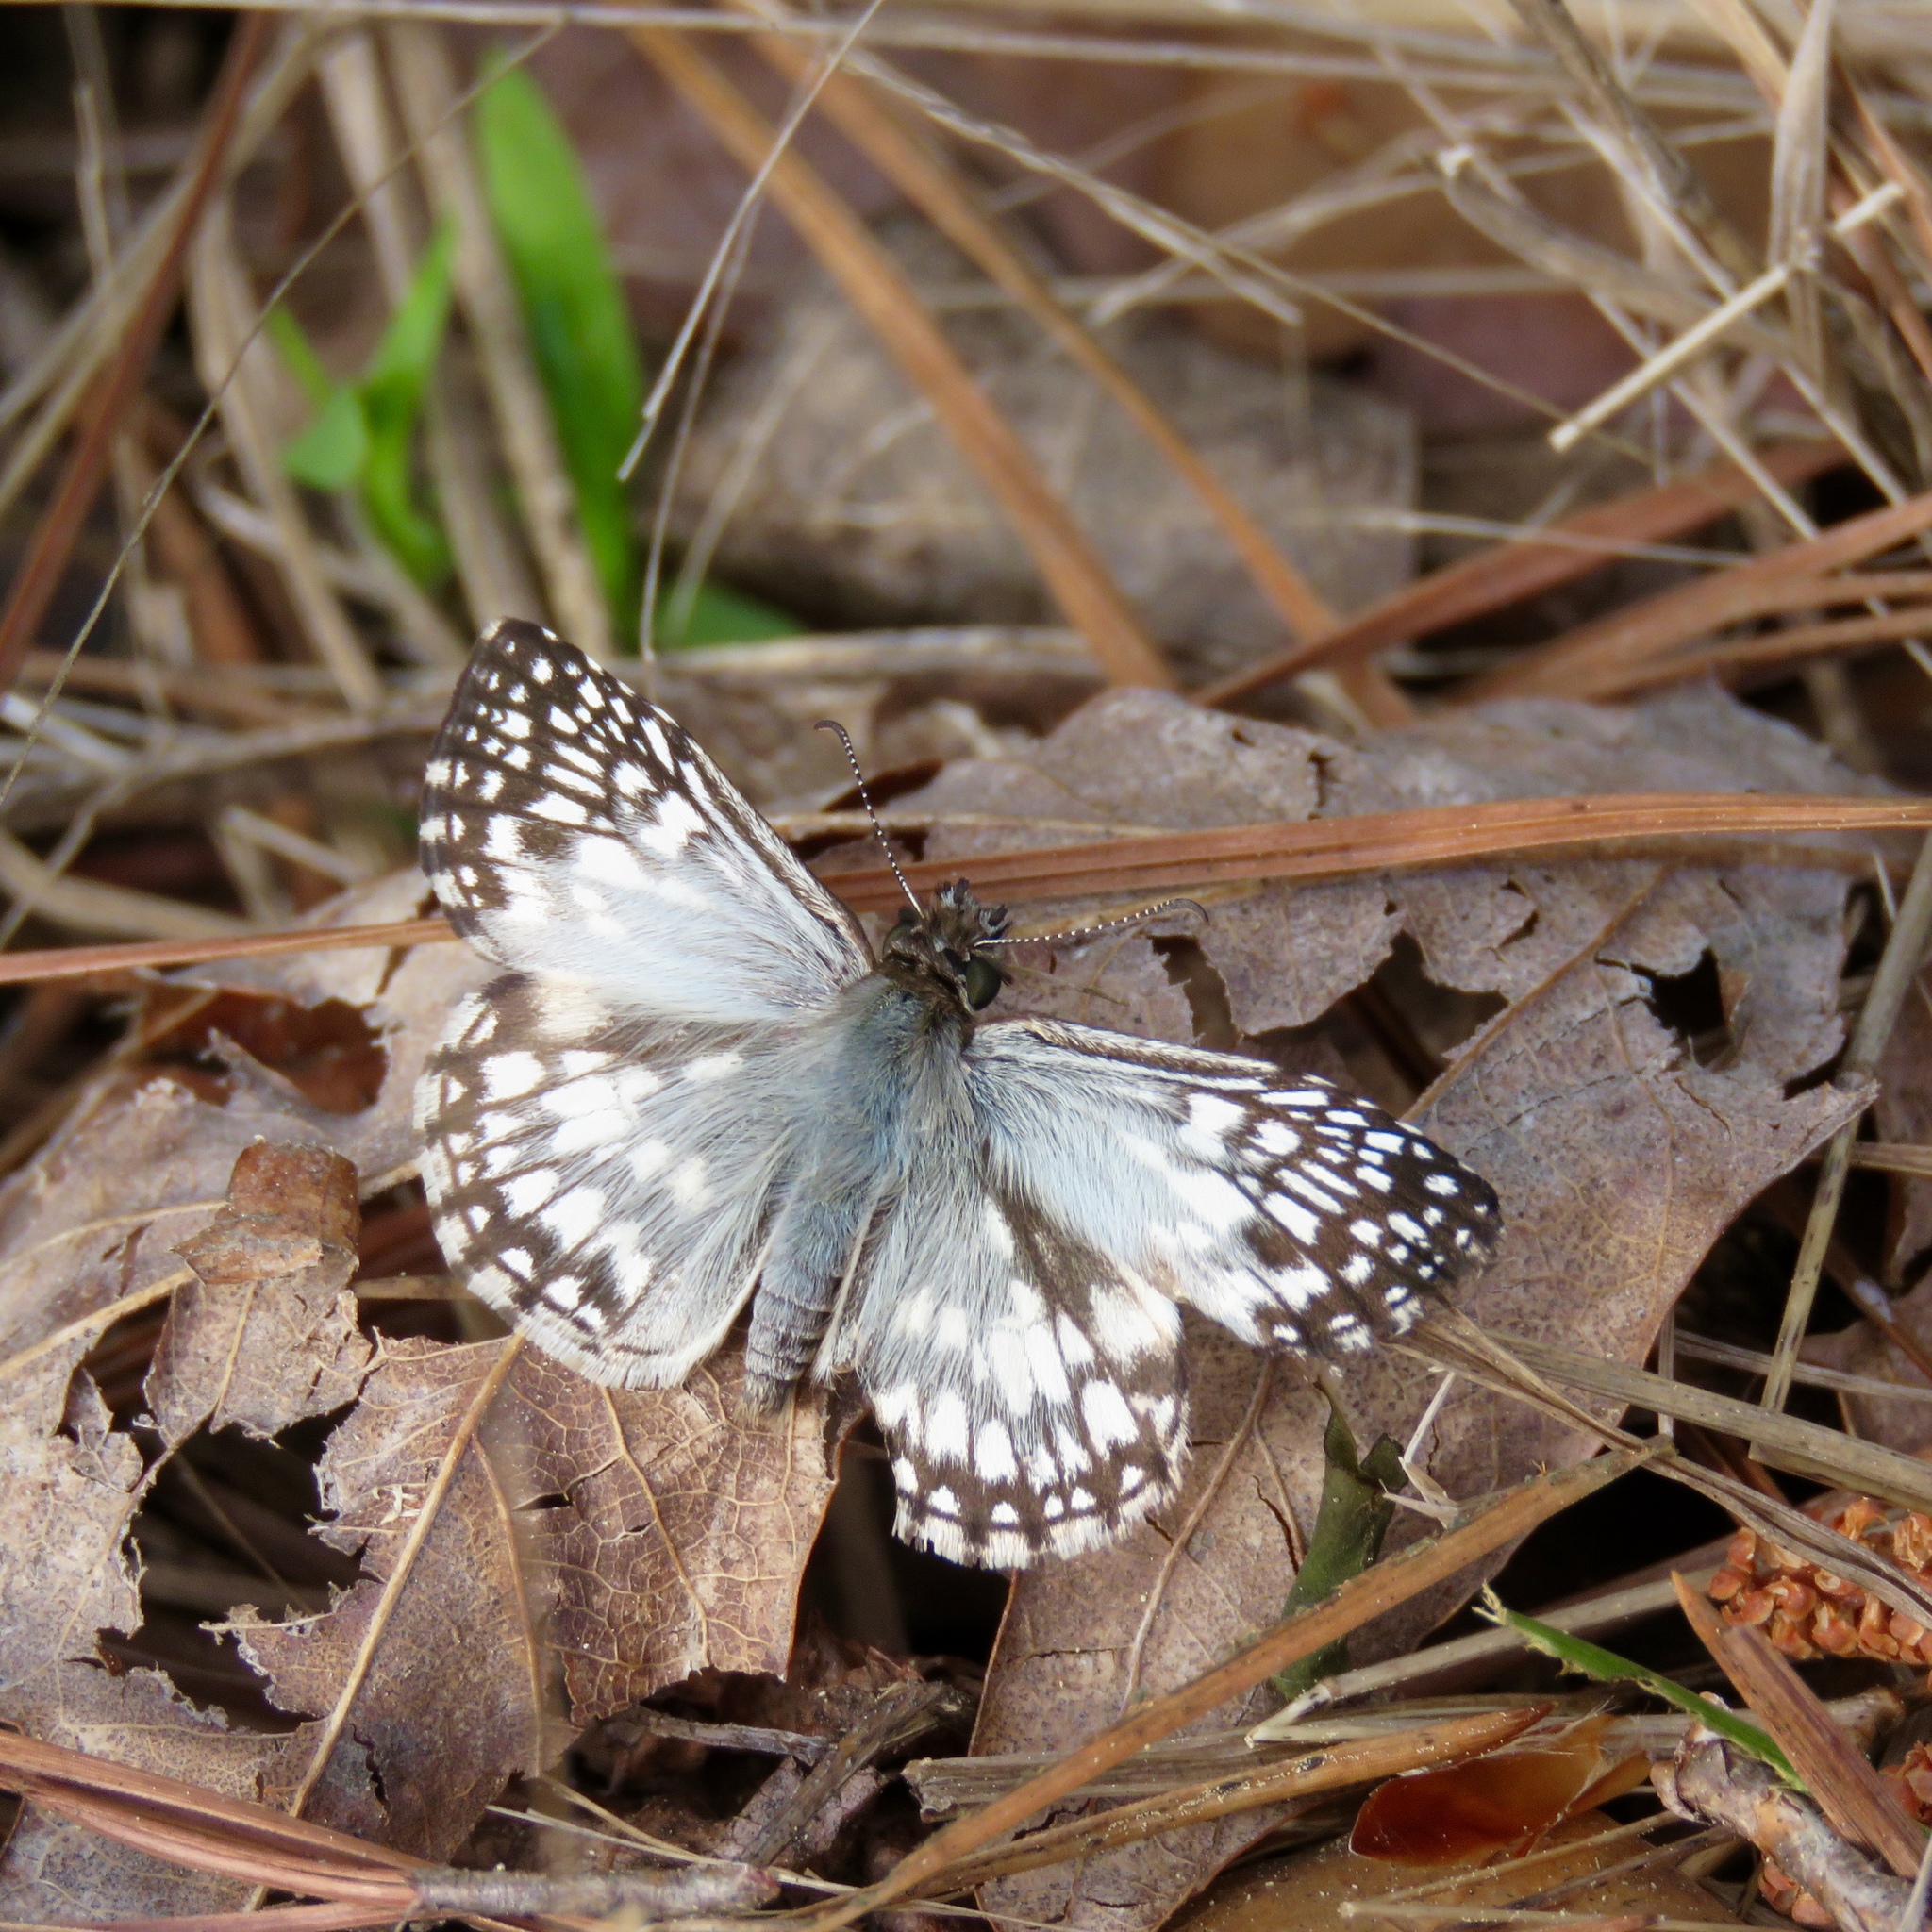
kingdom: Animalia
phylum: Arthropoda
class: Insecta
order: Lepidoptera
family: Hesperiidae
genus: Pyrgus
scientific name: Pyrgus oileus
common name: Tropical checkered-skipper
